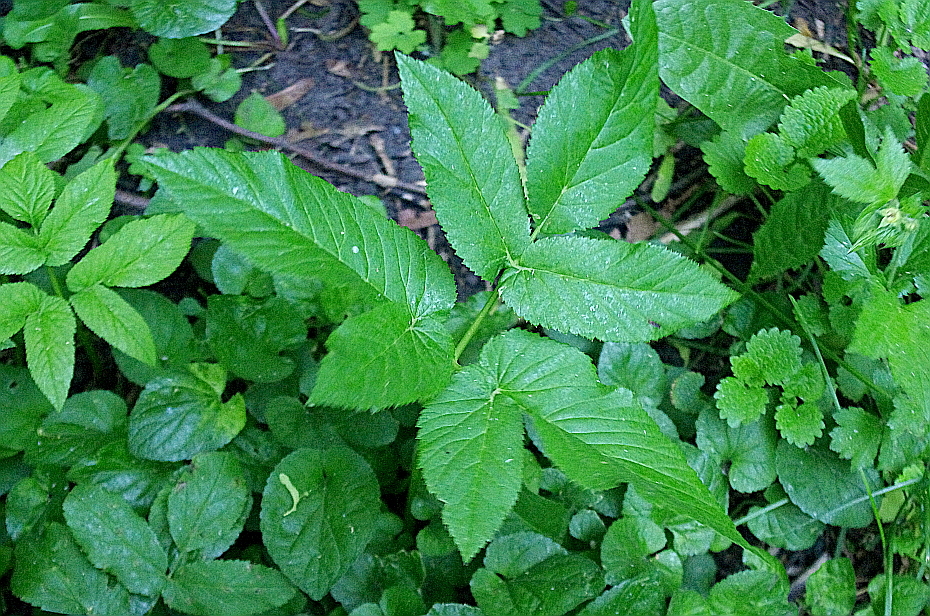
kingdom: Plantae
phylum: Tracheophyta
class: Magnoliopsida
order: Apiales
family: Apiaceae
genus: Aegopodium
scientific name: Aegopodium podagraria
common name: Ground-elder
